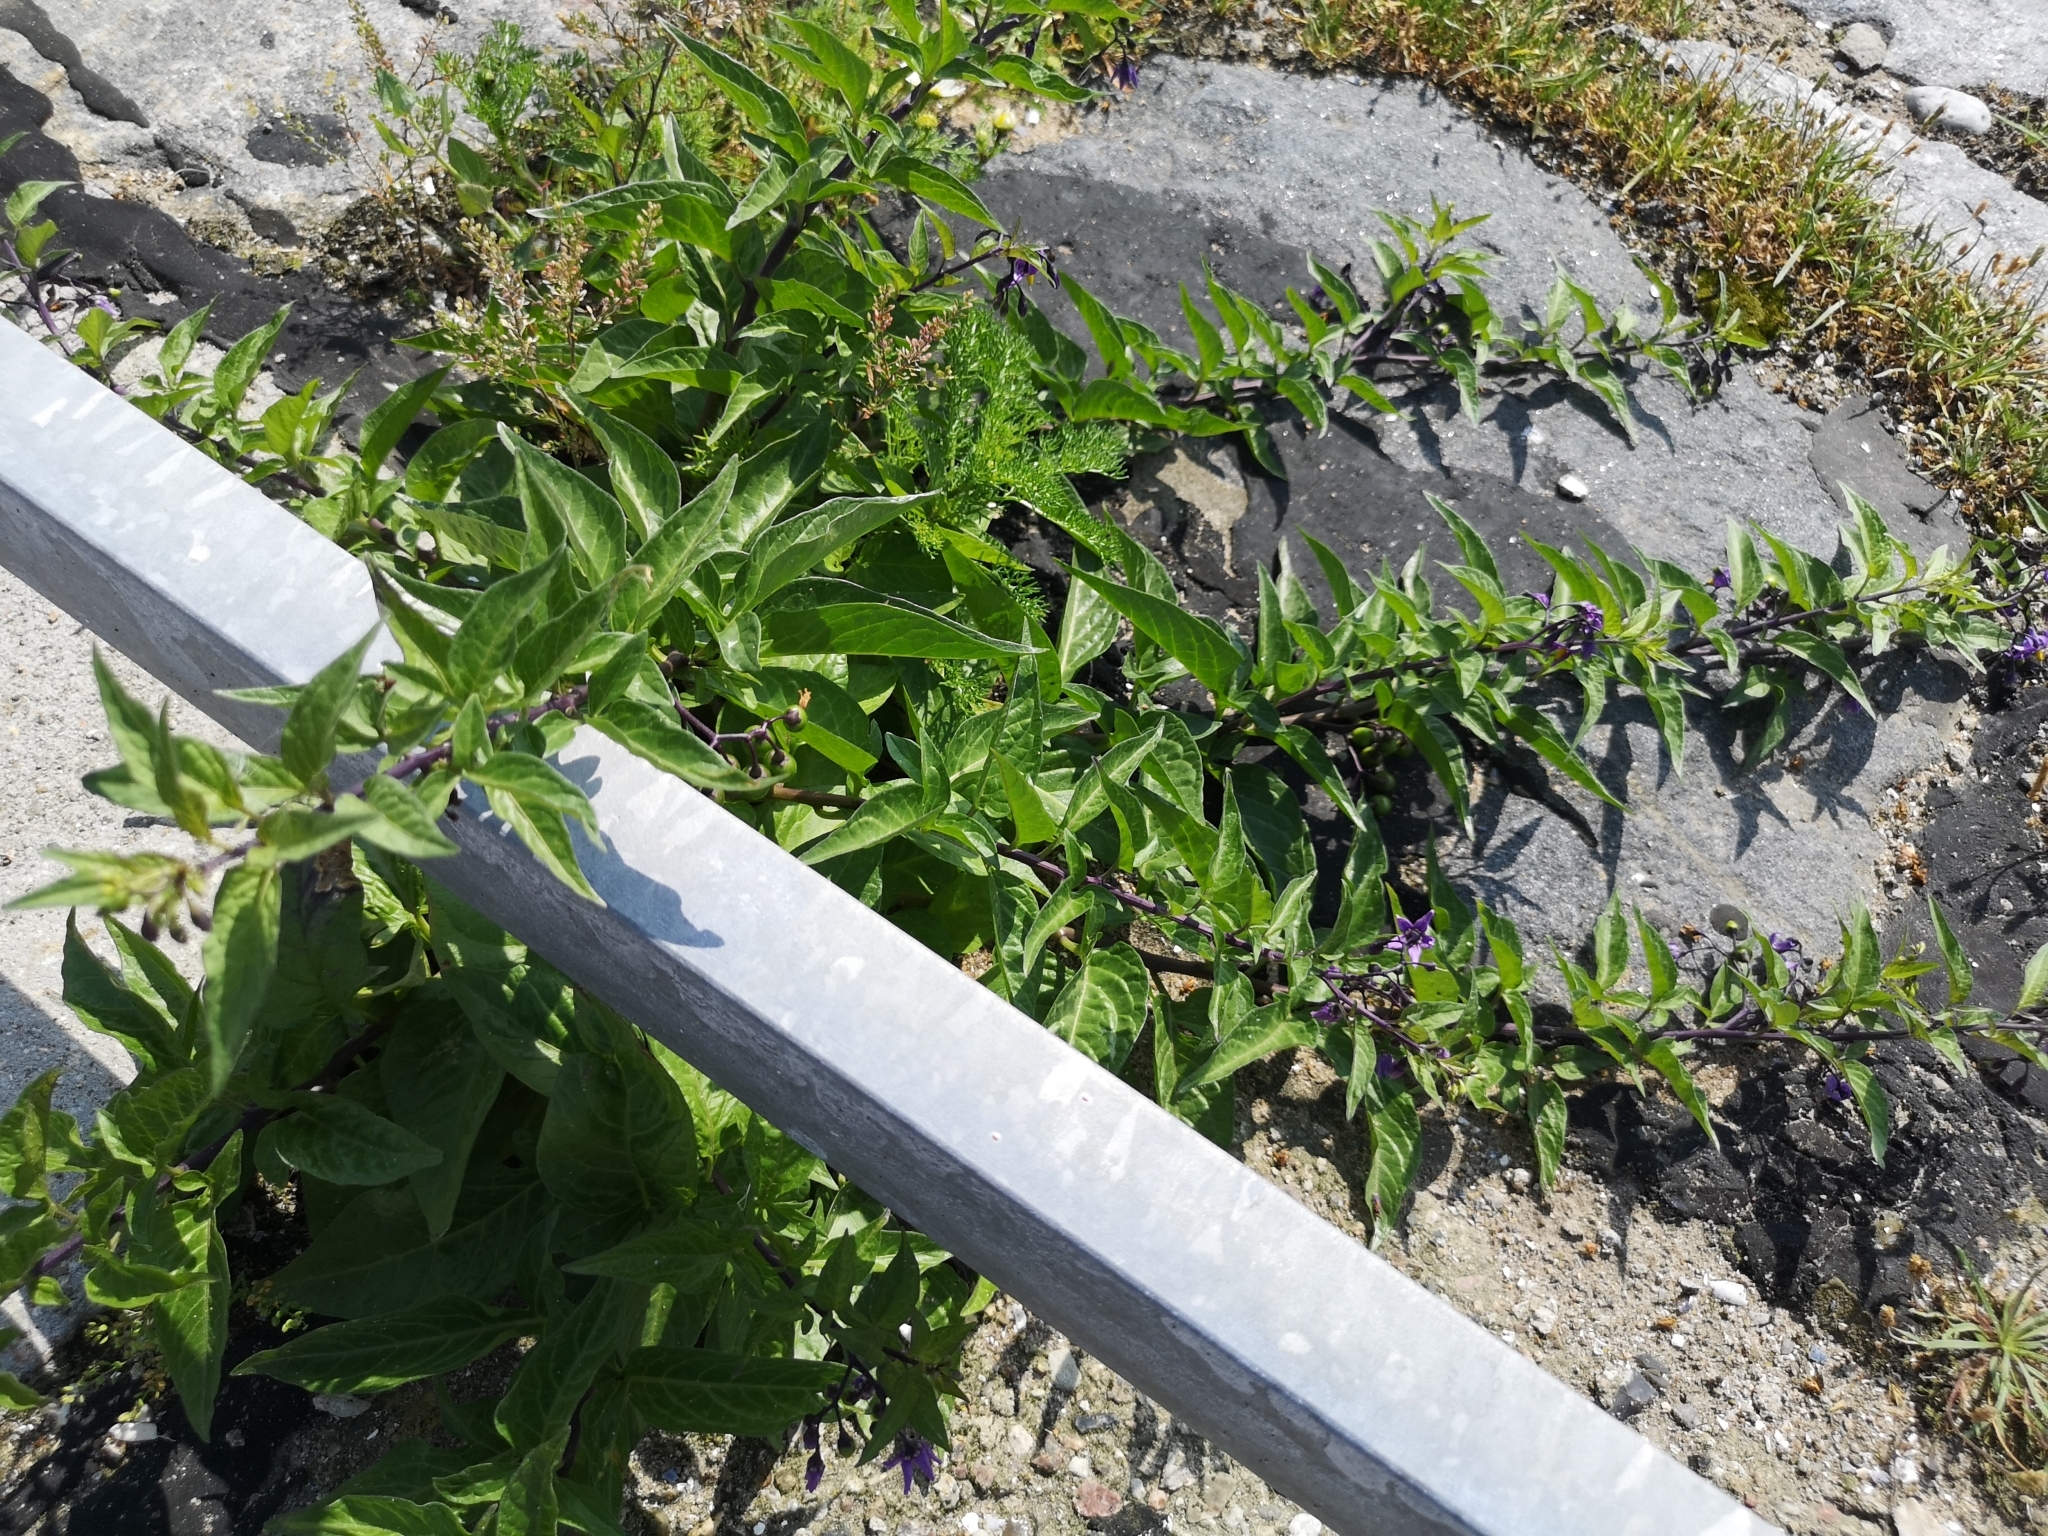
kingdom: Plantae
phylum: Tracheophyta
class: Magnoliopsida
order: Solanales
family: Solanaceae
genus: Solanum
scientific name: Solanum dulcamara
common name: Climbing nightshade
